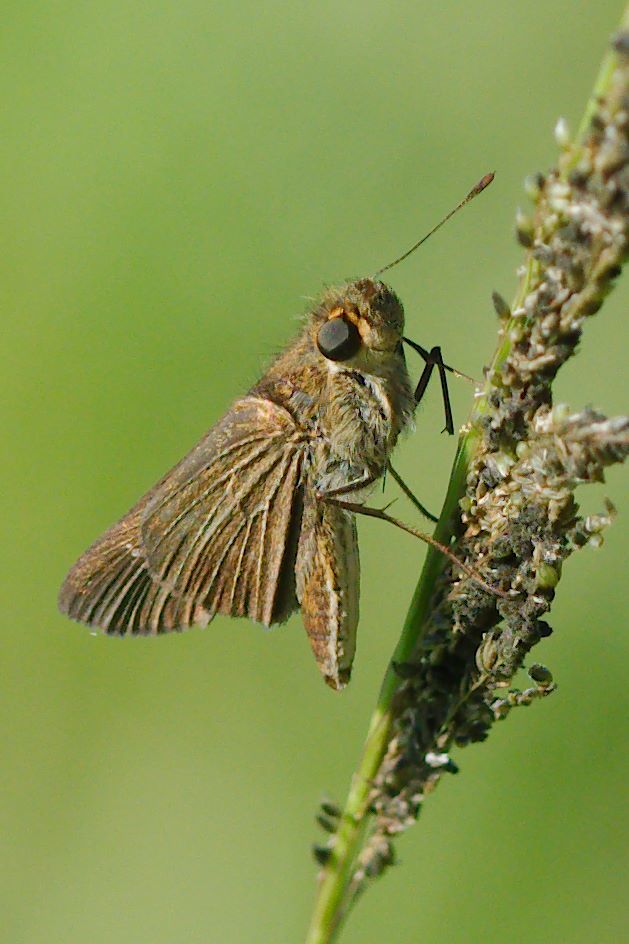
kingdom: Animalia
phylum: Arthropoda
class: Insecta
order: Lepidoptera
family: Hesperiidae
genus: Panoquina
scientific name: Panoquina ocola
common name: Ocola skipper
